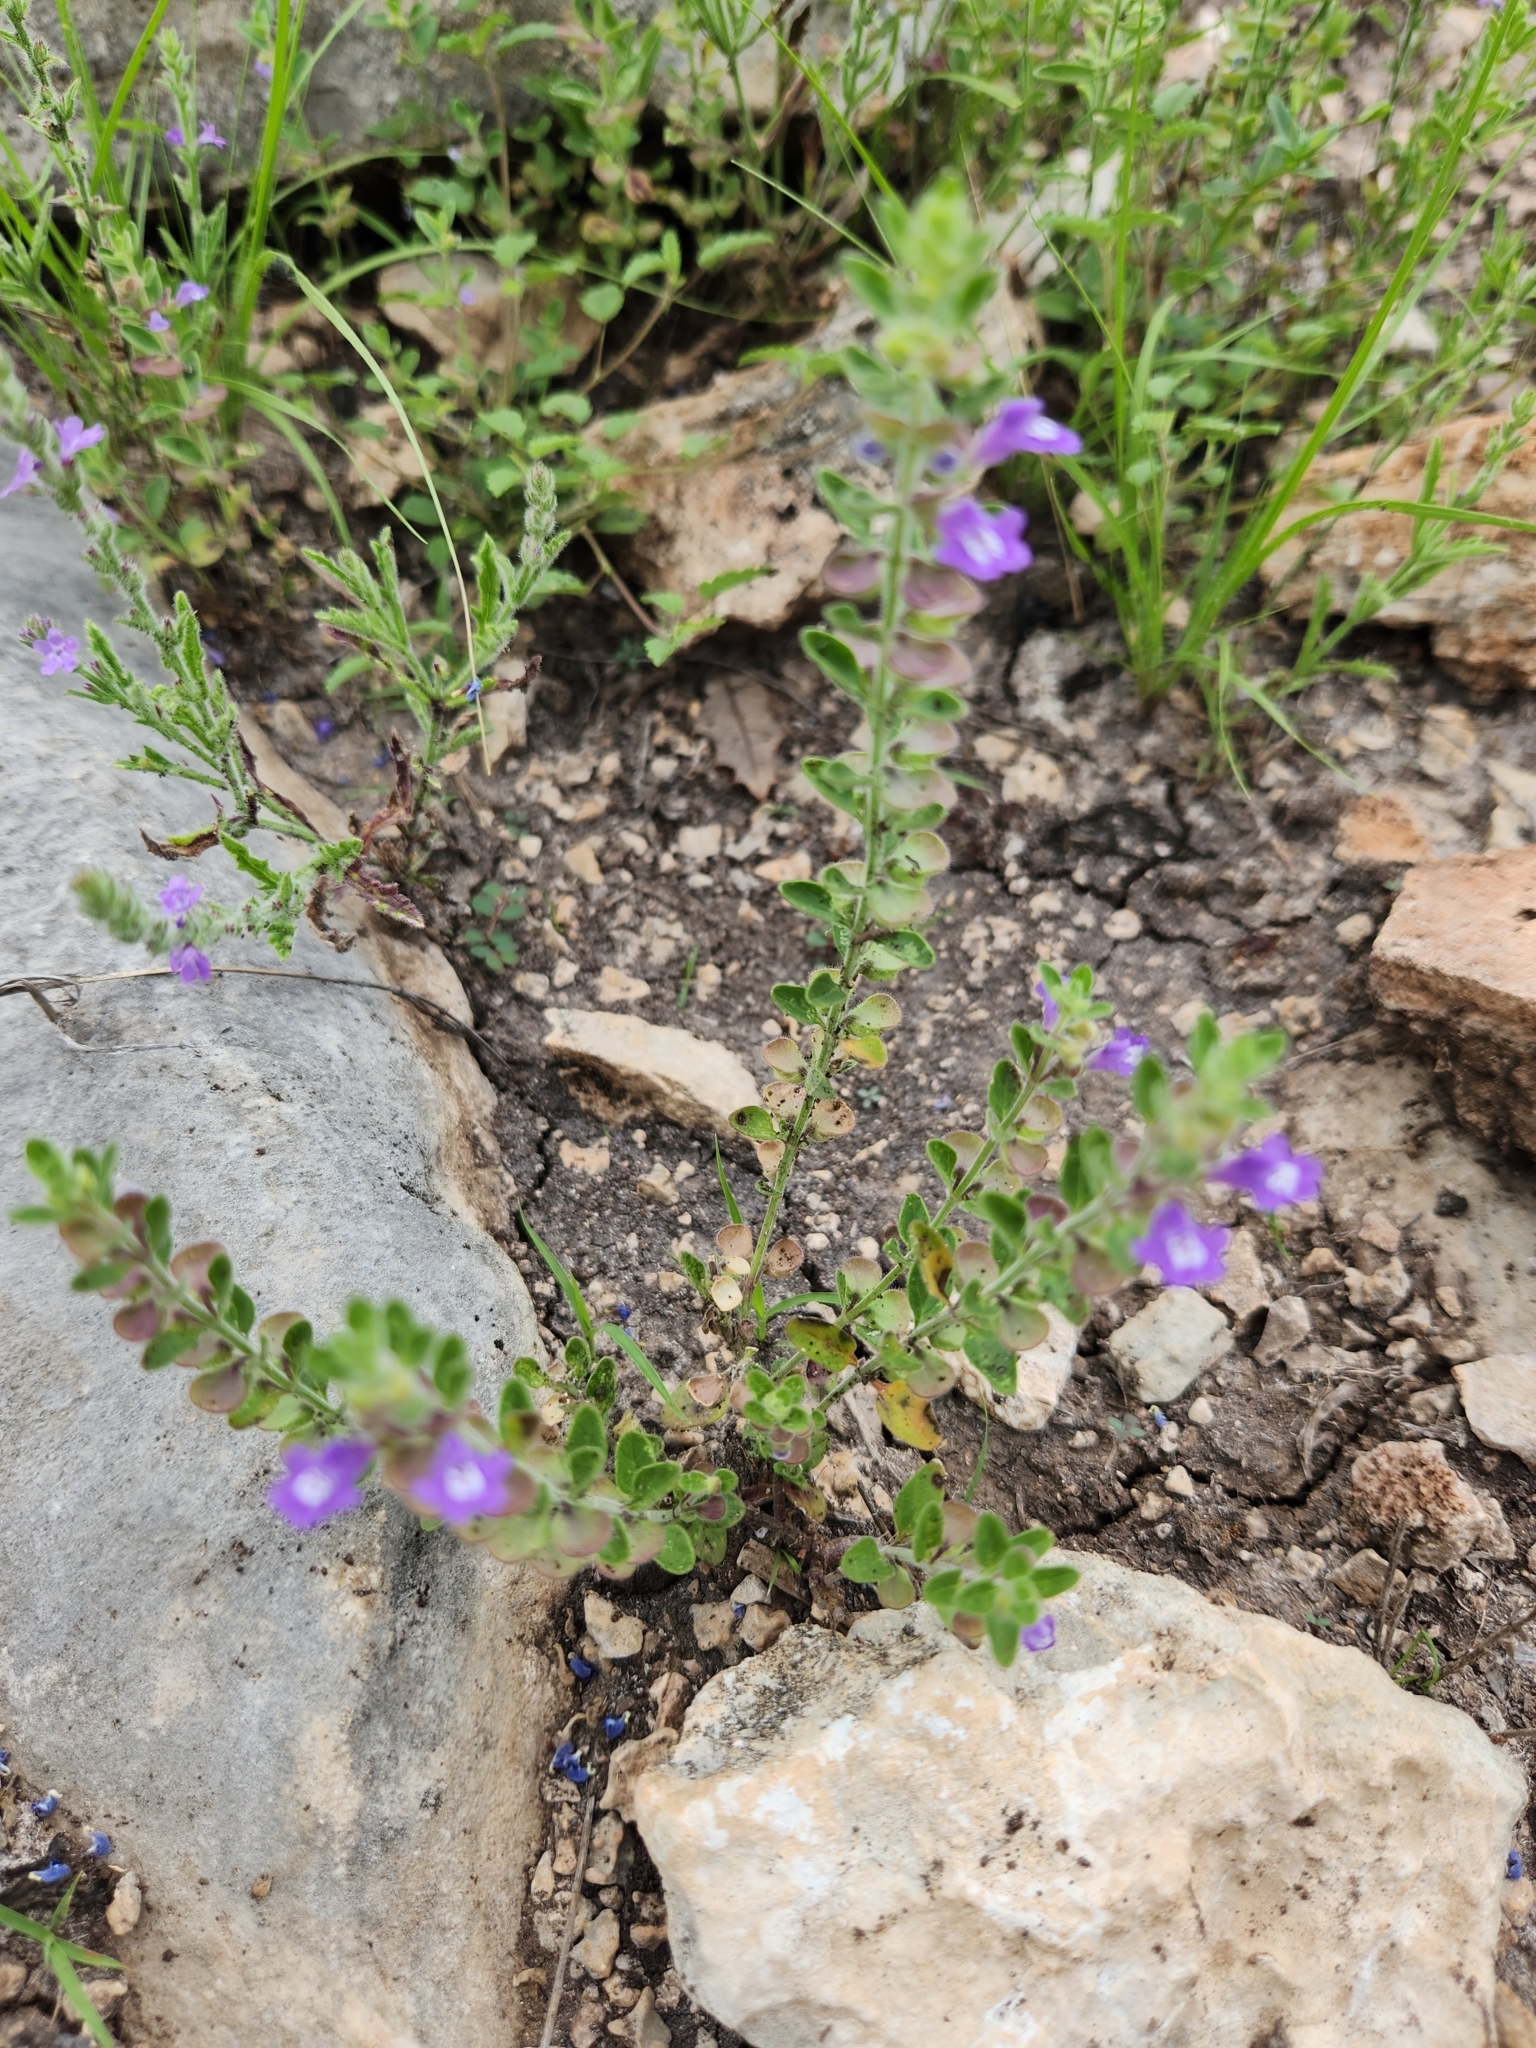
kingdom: Plantae
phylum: Tracheophyta
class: Magnoliopsida
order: Lamiales
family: Lamiaceae
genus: Scutellaria
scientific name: Scutellaria drummondii
